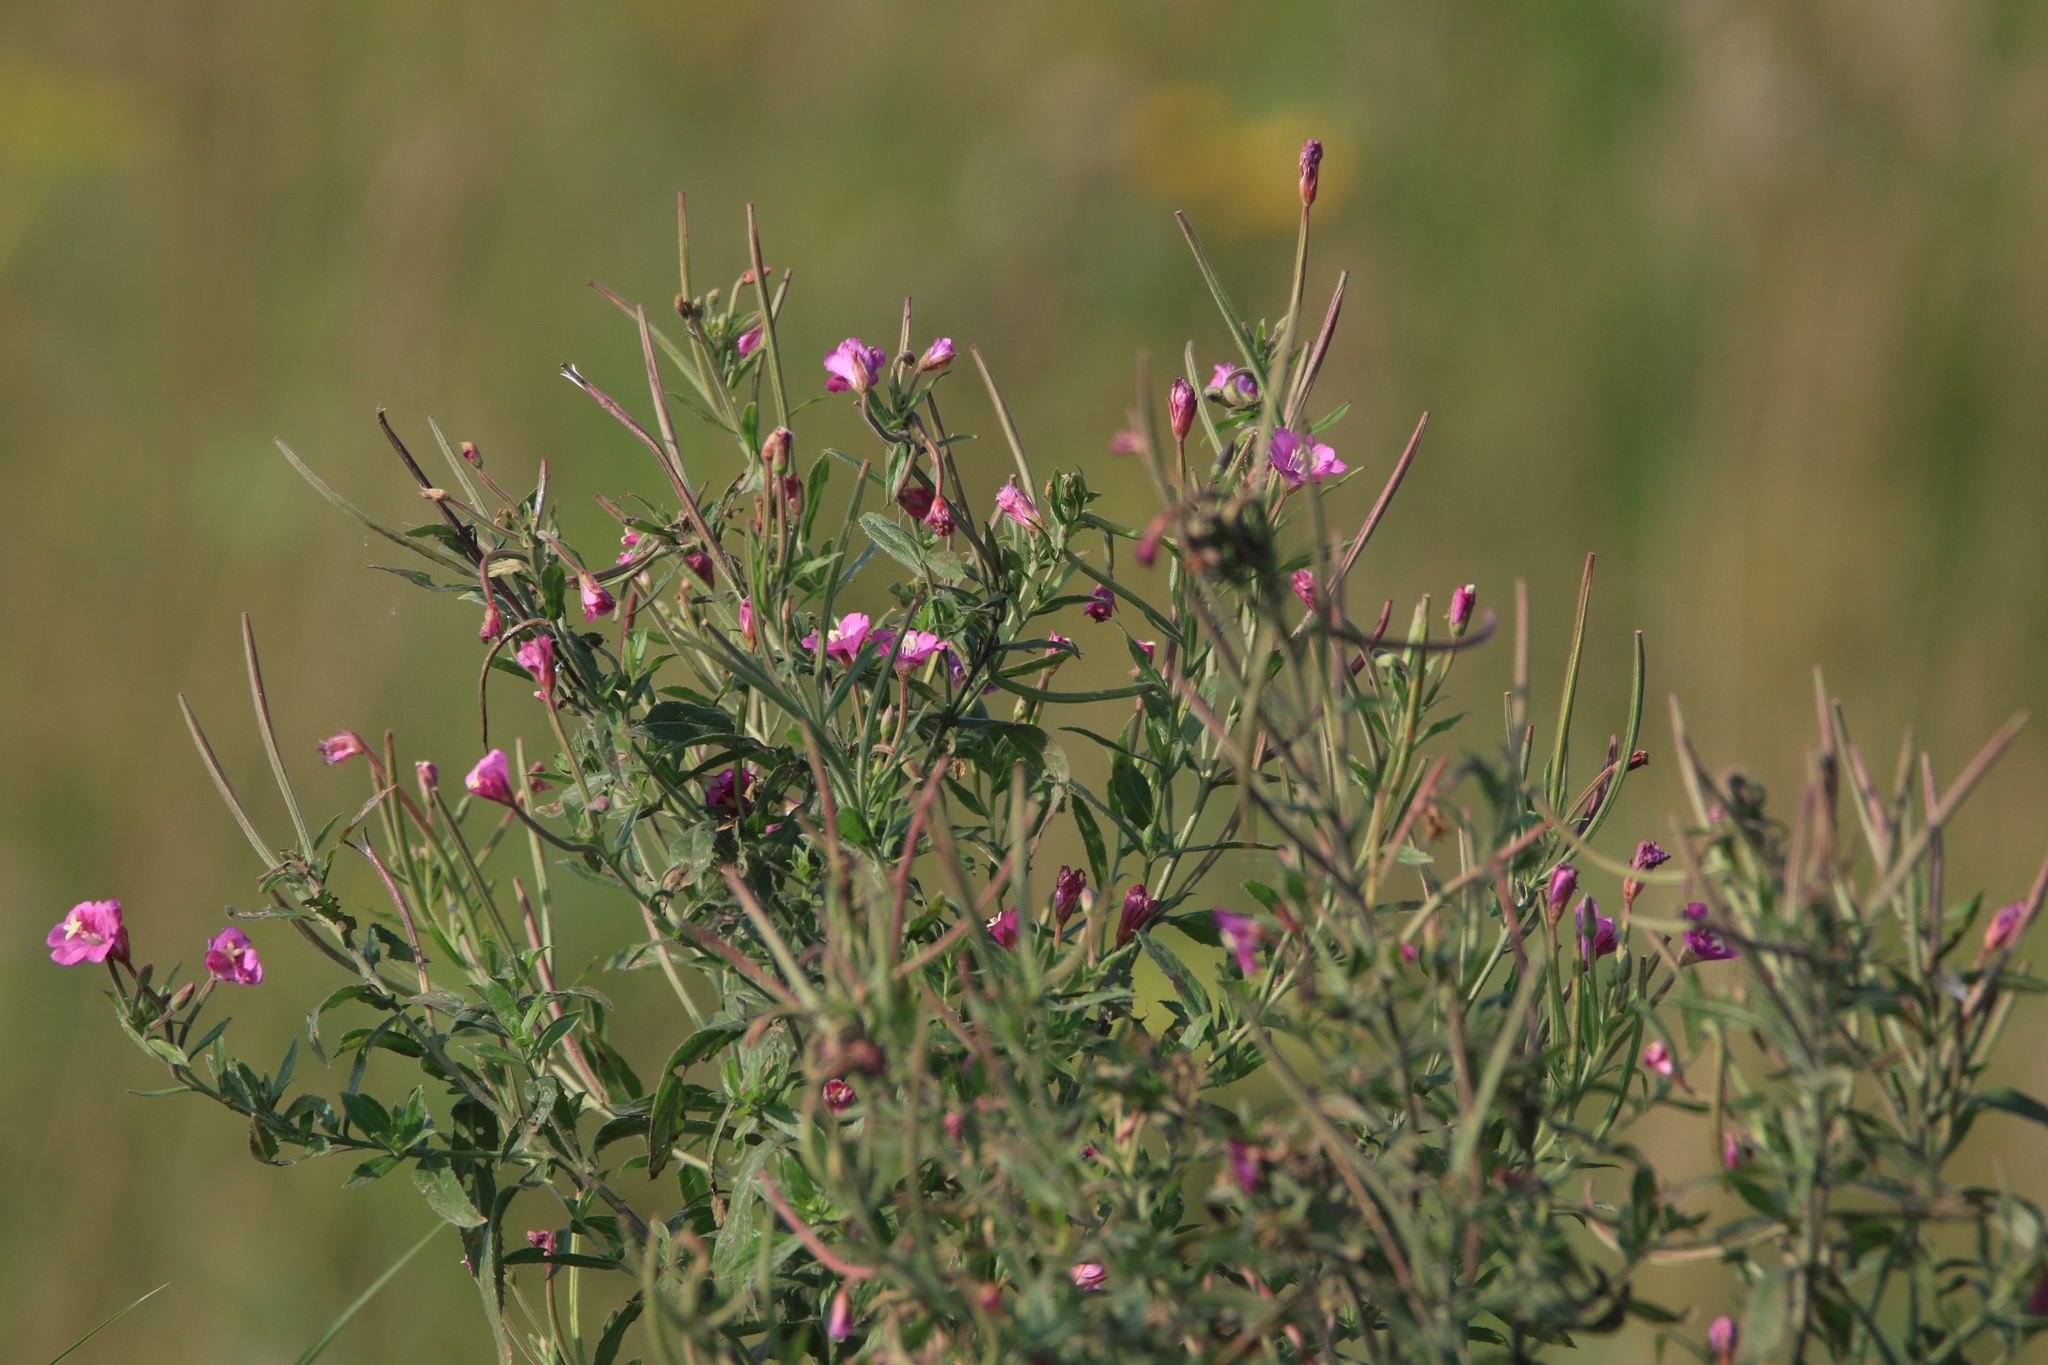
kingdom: Plantae
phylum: Tracheophyta
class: Magnoliopsida
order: Myrtales
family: Onagraceae
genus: Epilobium
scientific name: Epilobium hirsutum
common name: Great willowherb
